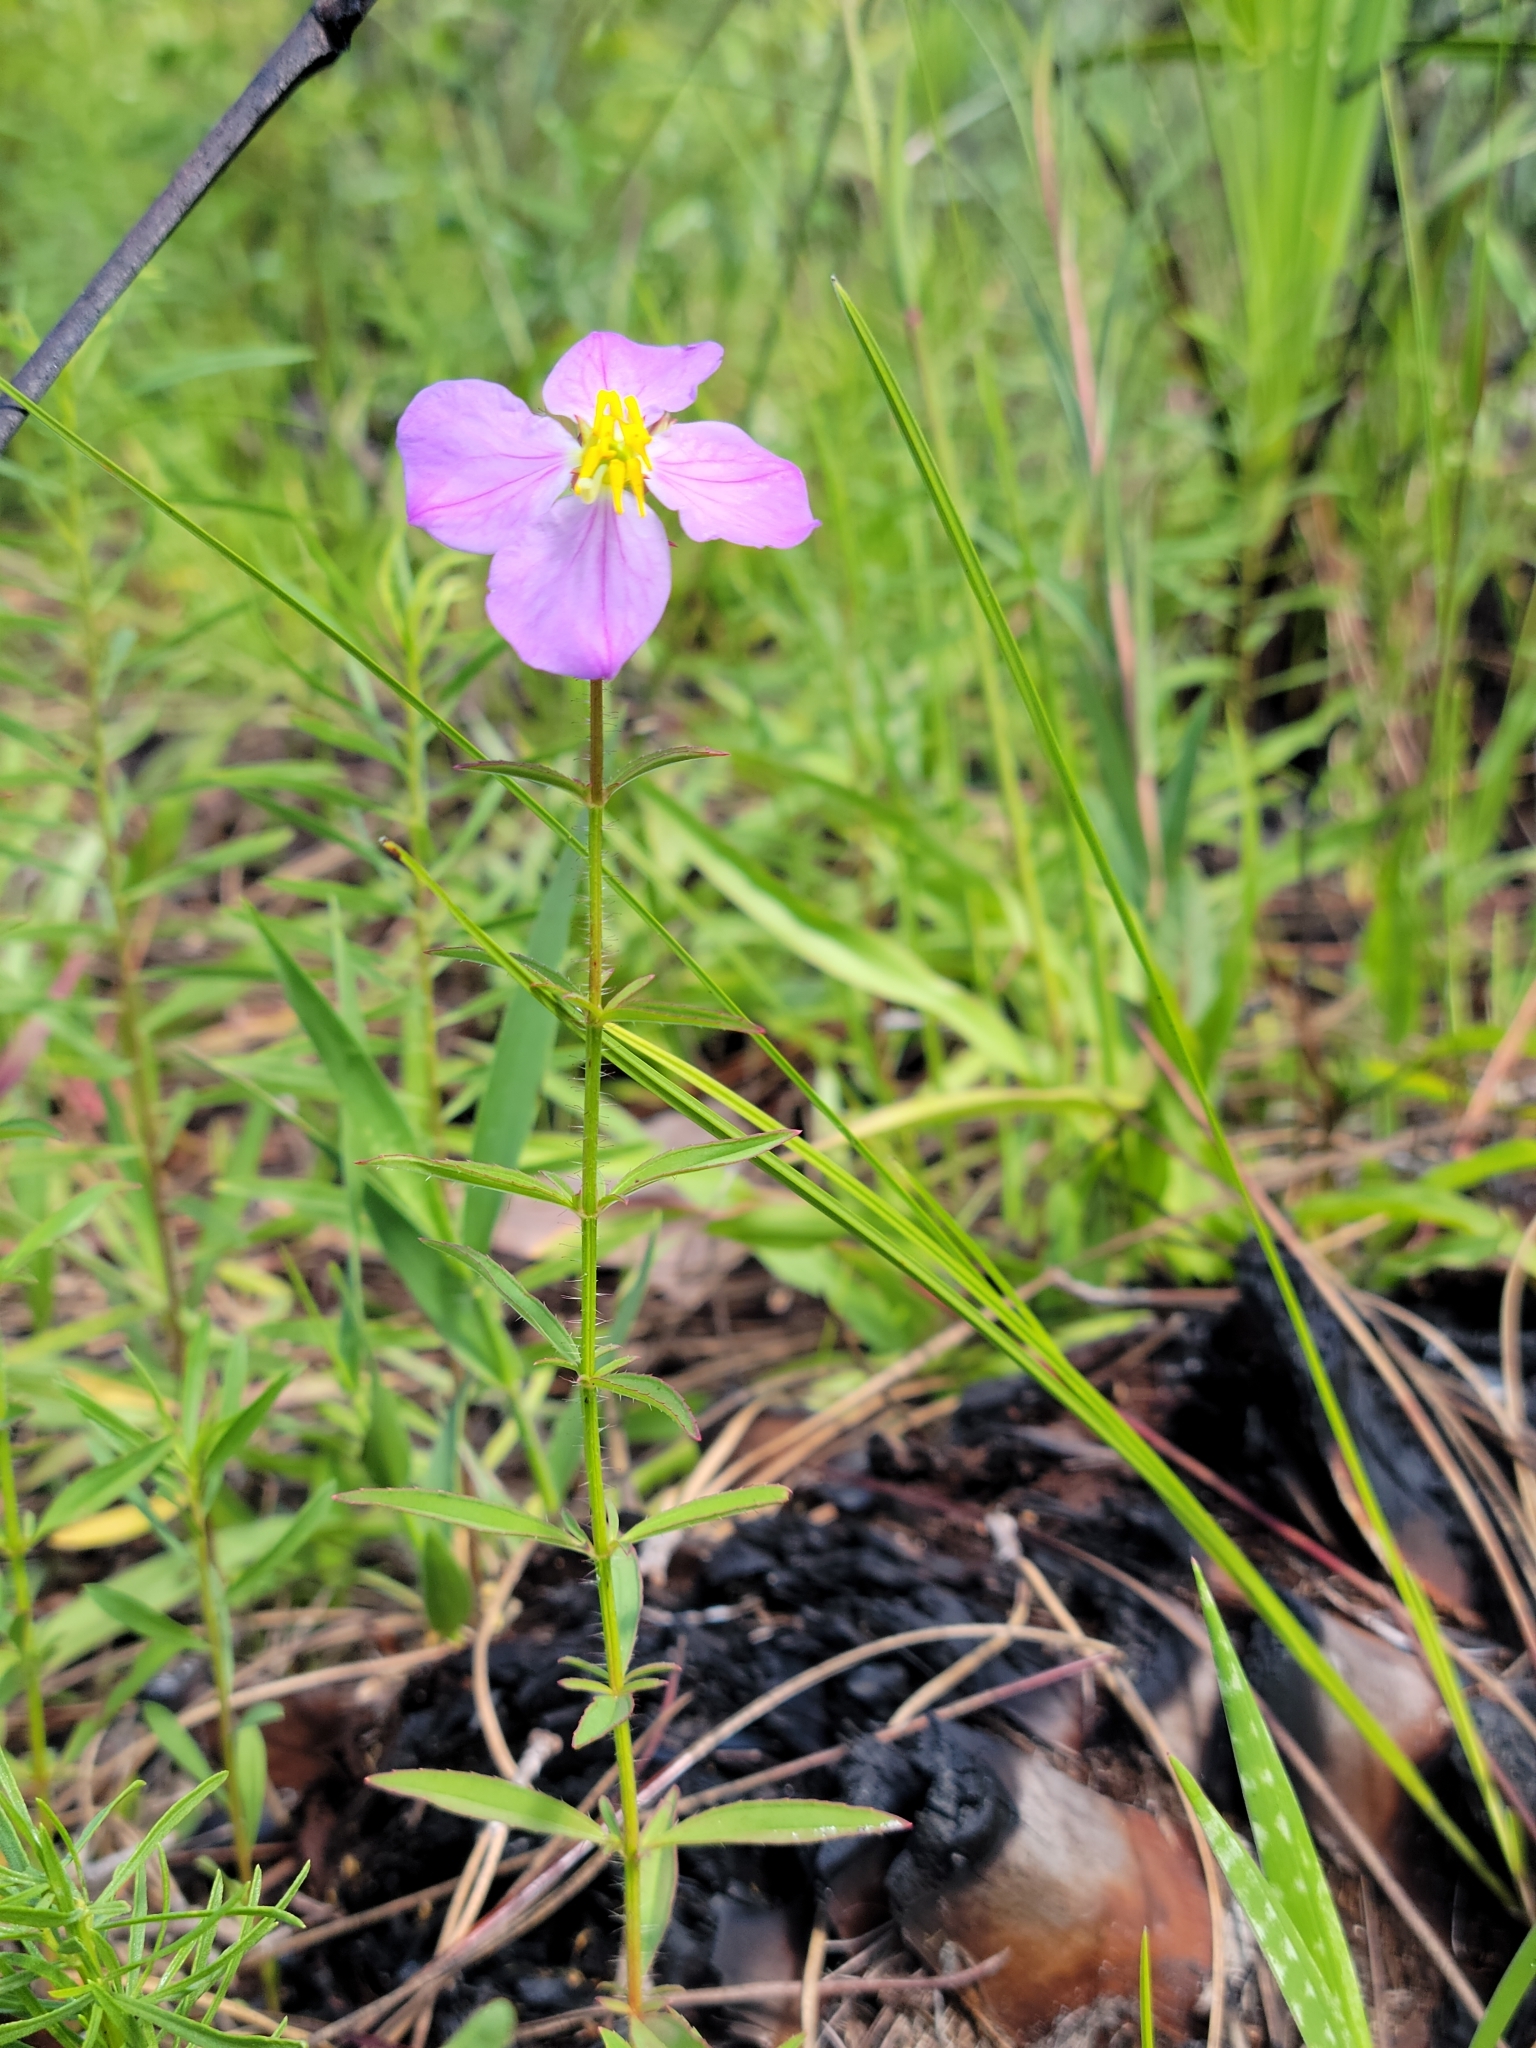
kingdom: Plantae
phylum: Tracheophyta
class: Magnoliopsida
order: Myrtales
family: Melastomataceae
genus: Rhexia
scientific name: Rhexia mariana
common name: Dull meadow-pitcher
